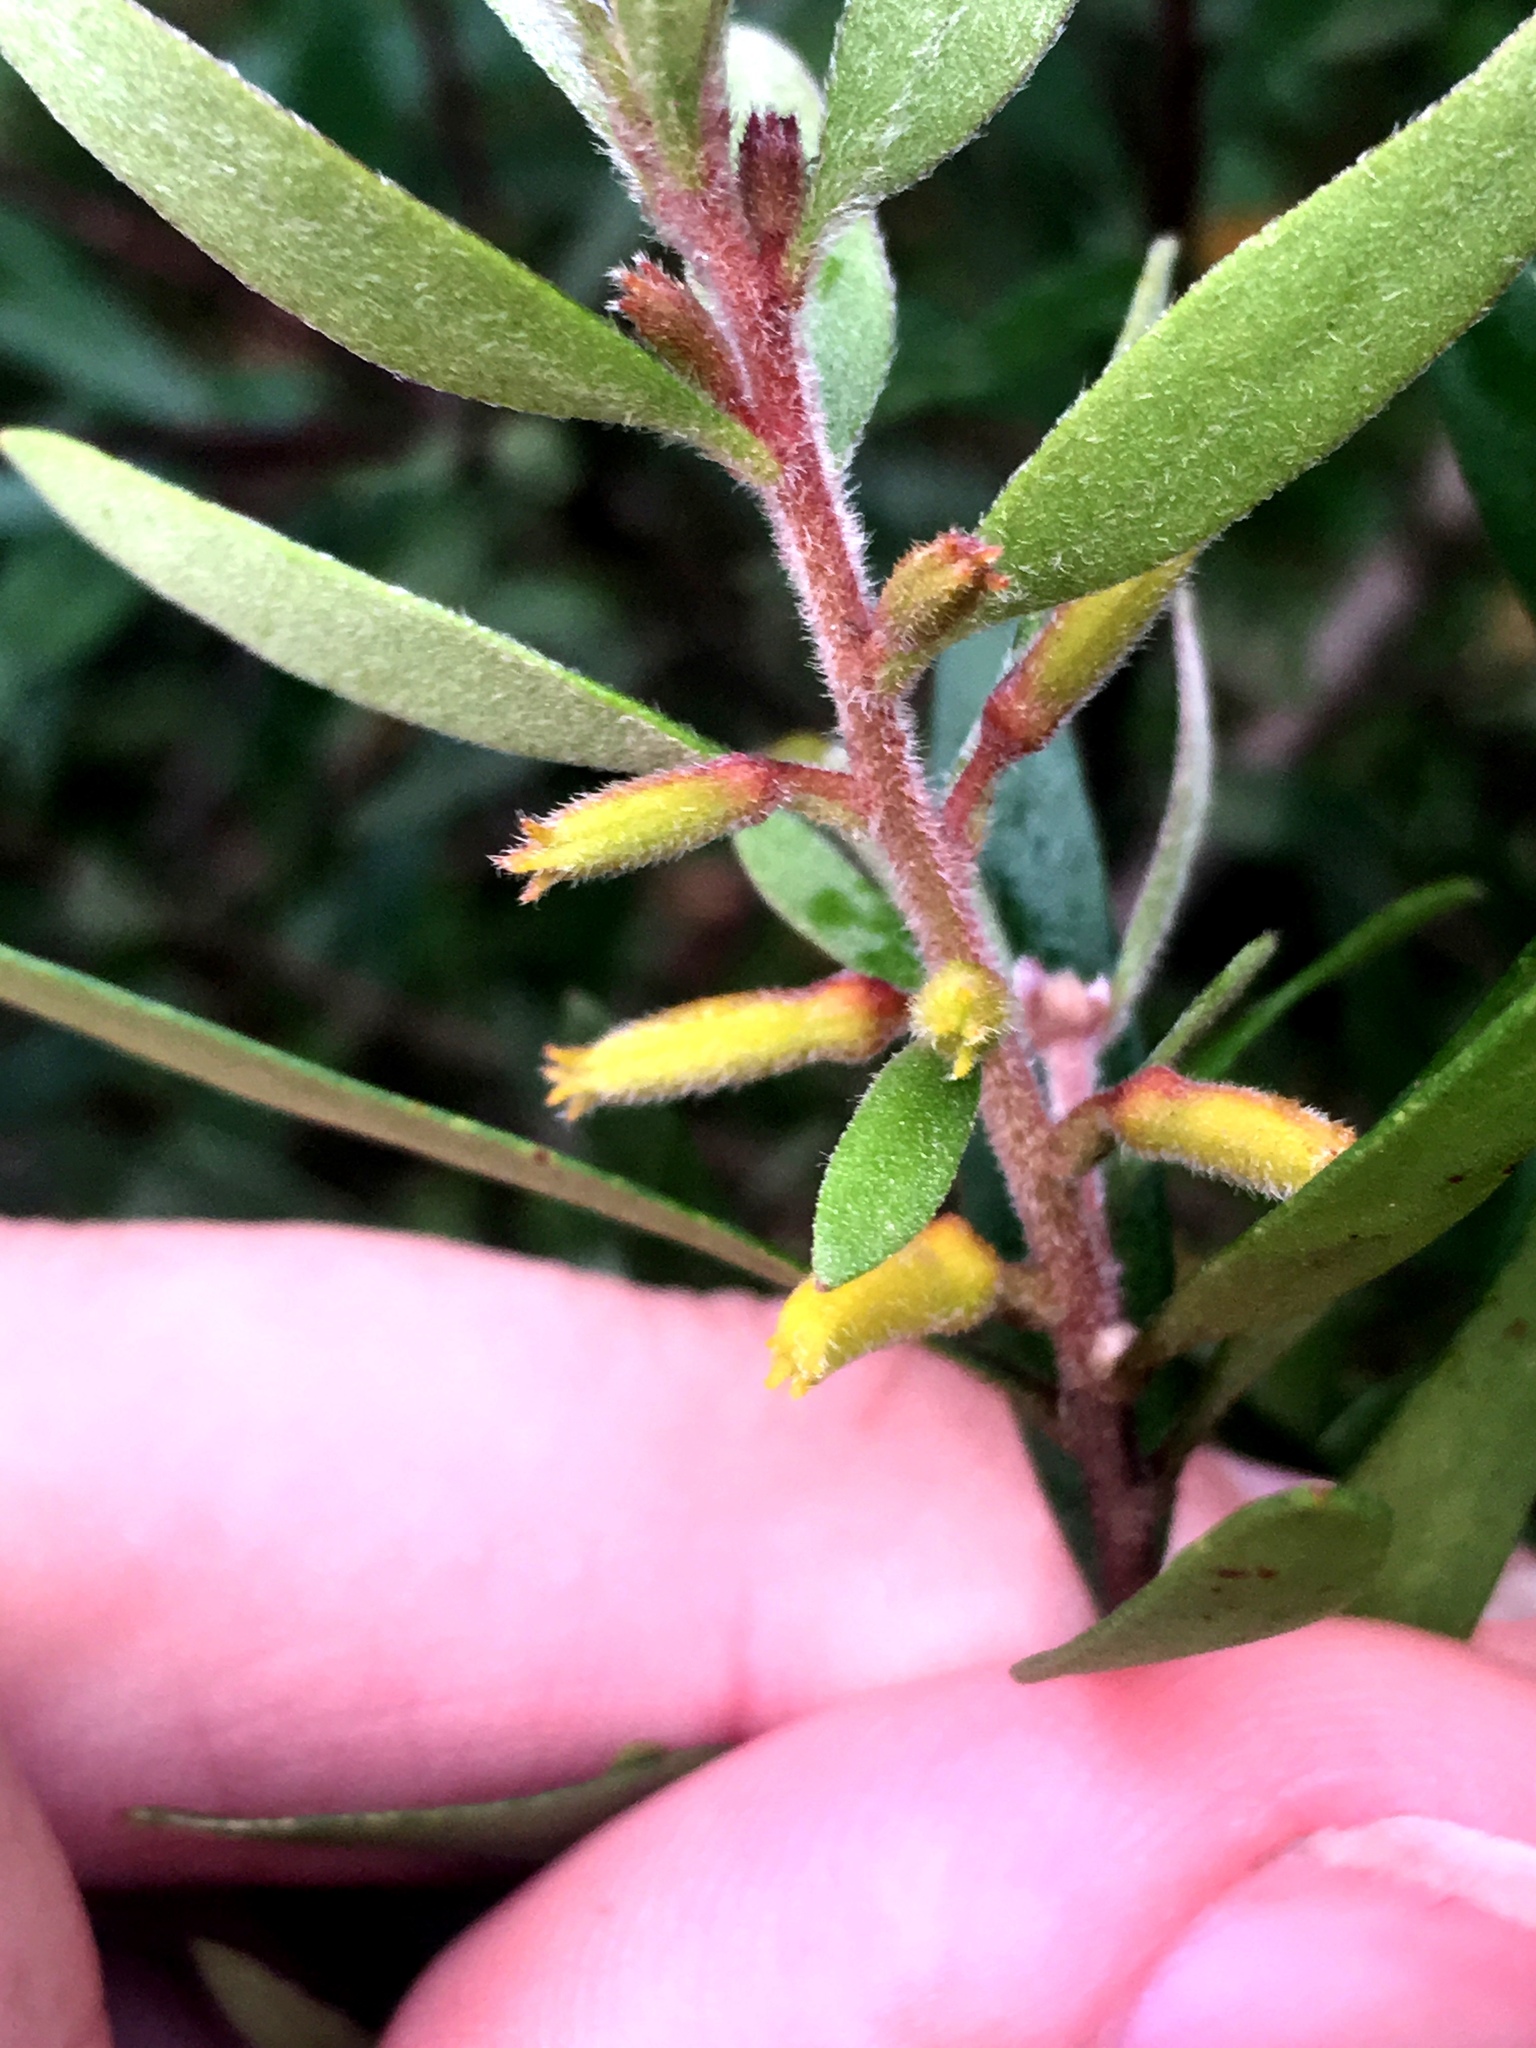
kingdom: Plantae
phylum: Tracheophyta
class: Magnoliopsida
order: Proteales
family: Proteaceae
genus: Persoonia
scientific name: Persoonia mollis
